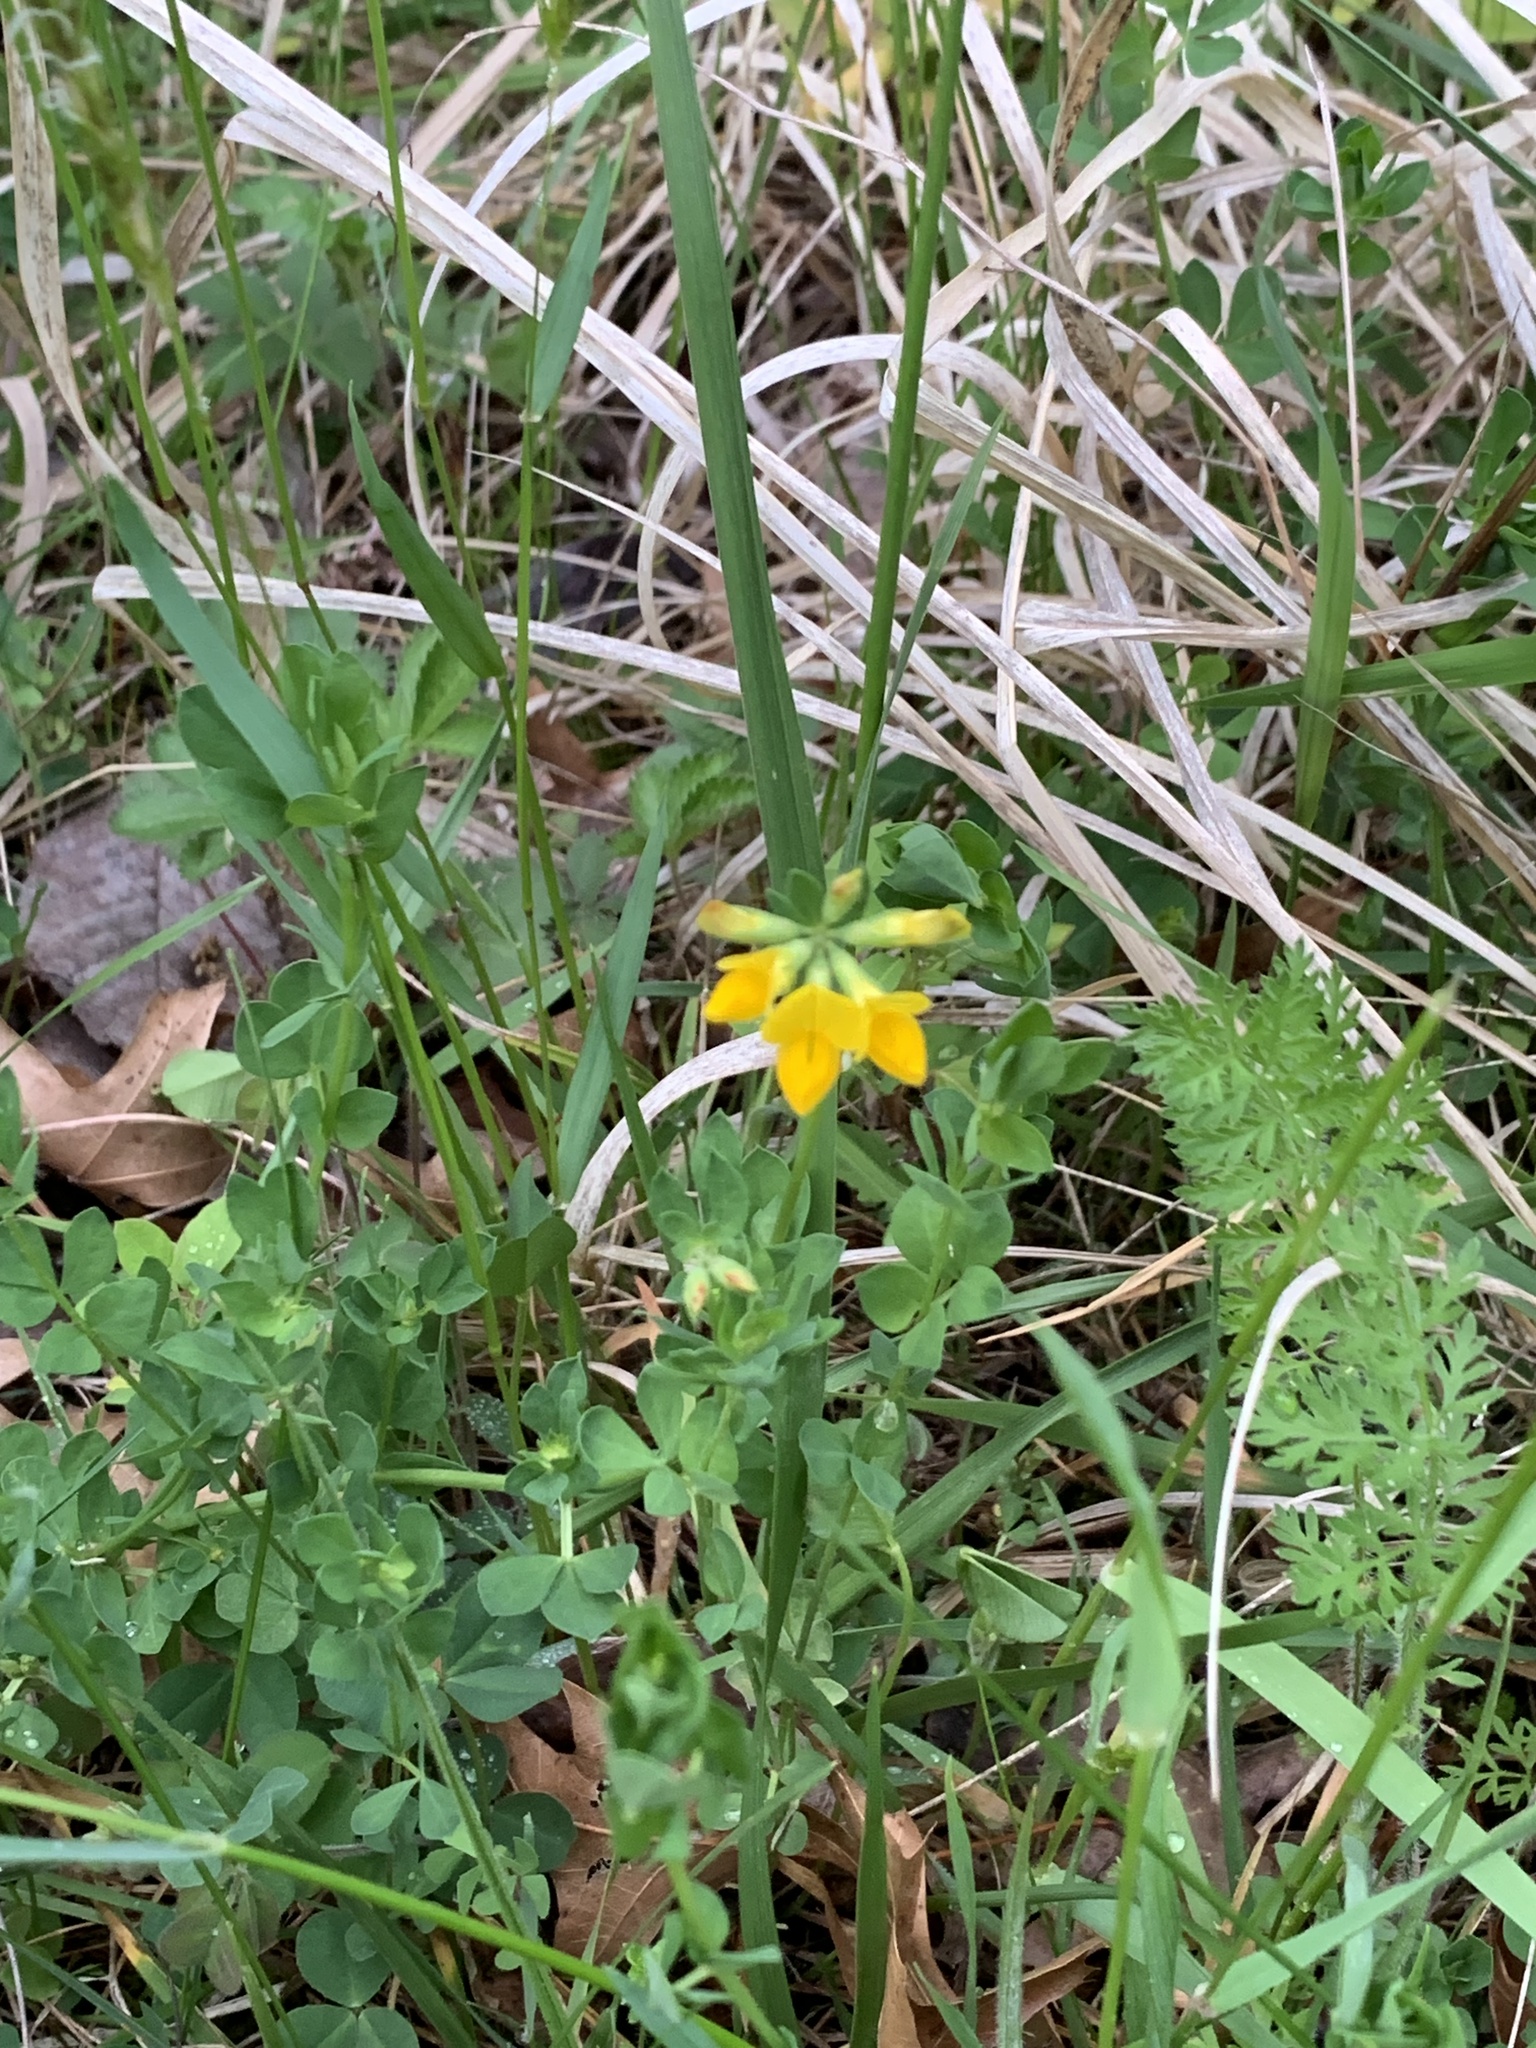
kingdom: Plantae
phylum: Tracheophyta
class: Magnoliopsida
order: Fabales
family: Fabaceae
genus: Lotus
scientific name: Lotus corniculatus
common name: Common bird's-foot-trefoil
